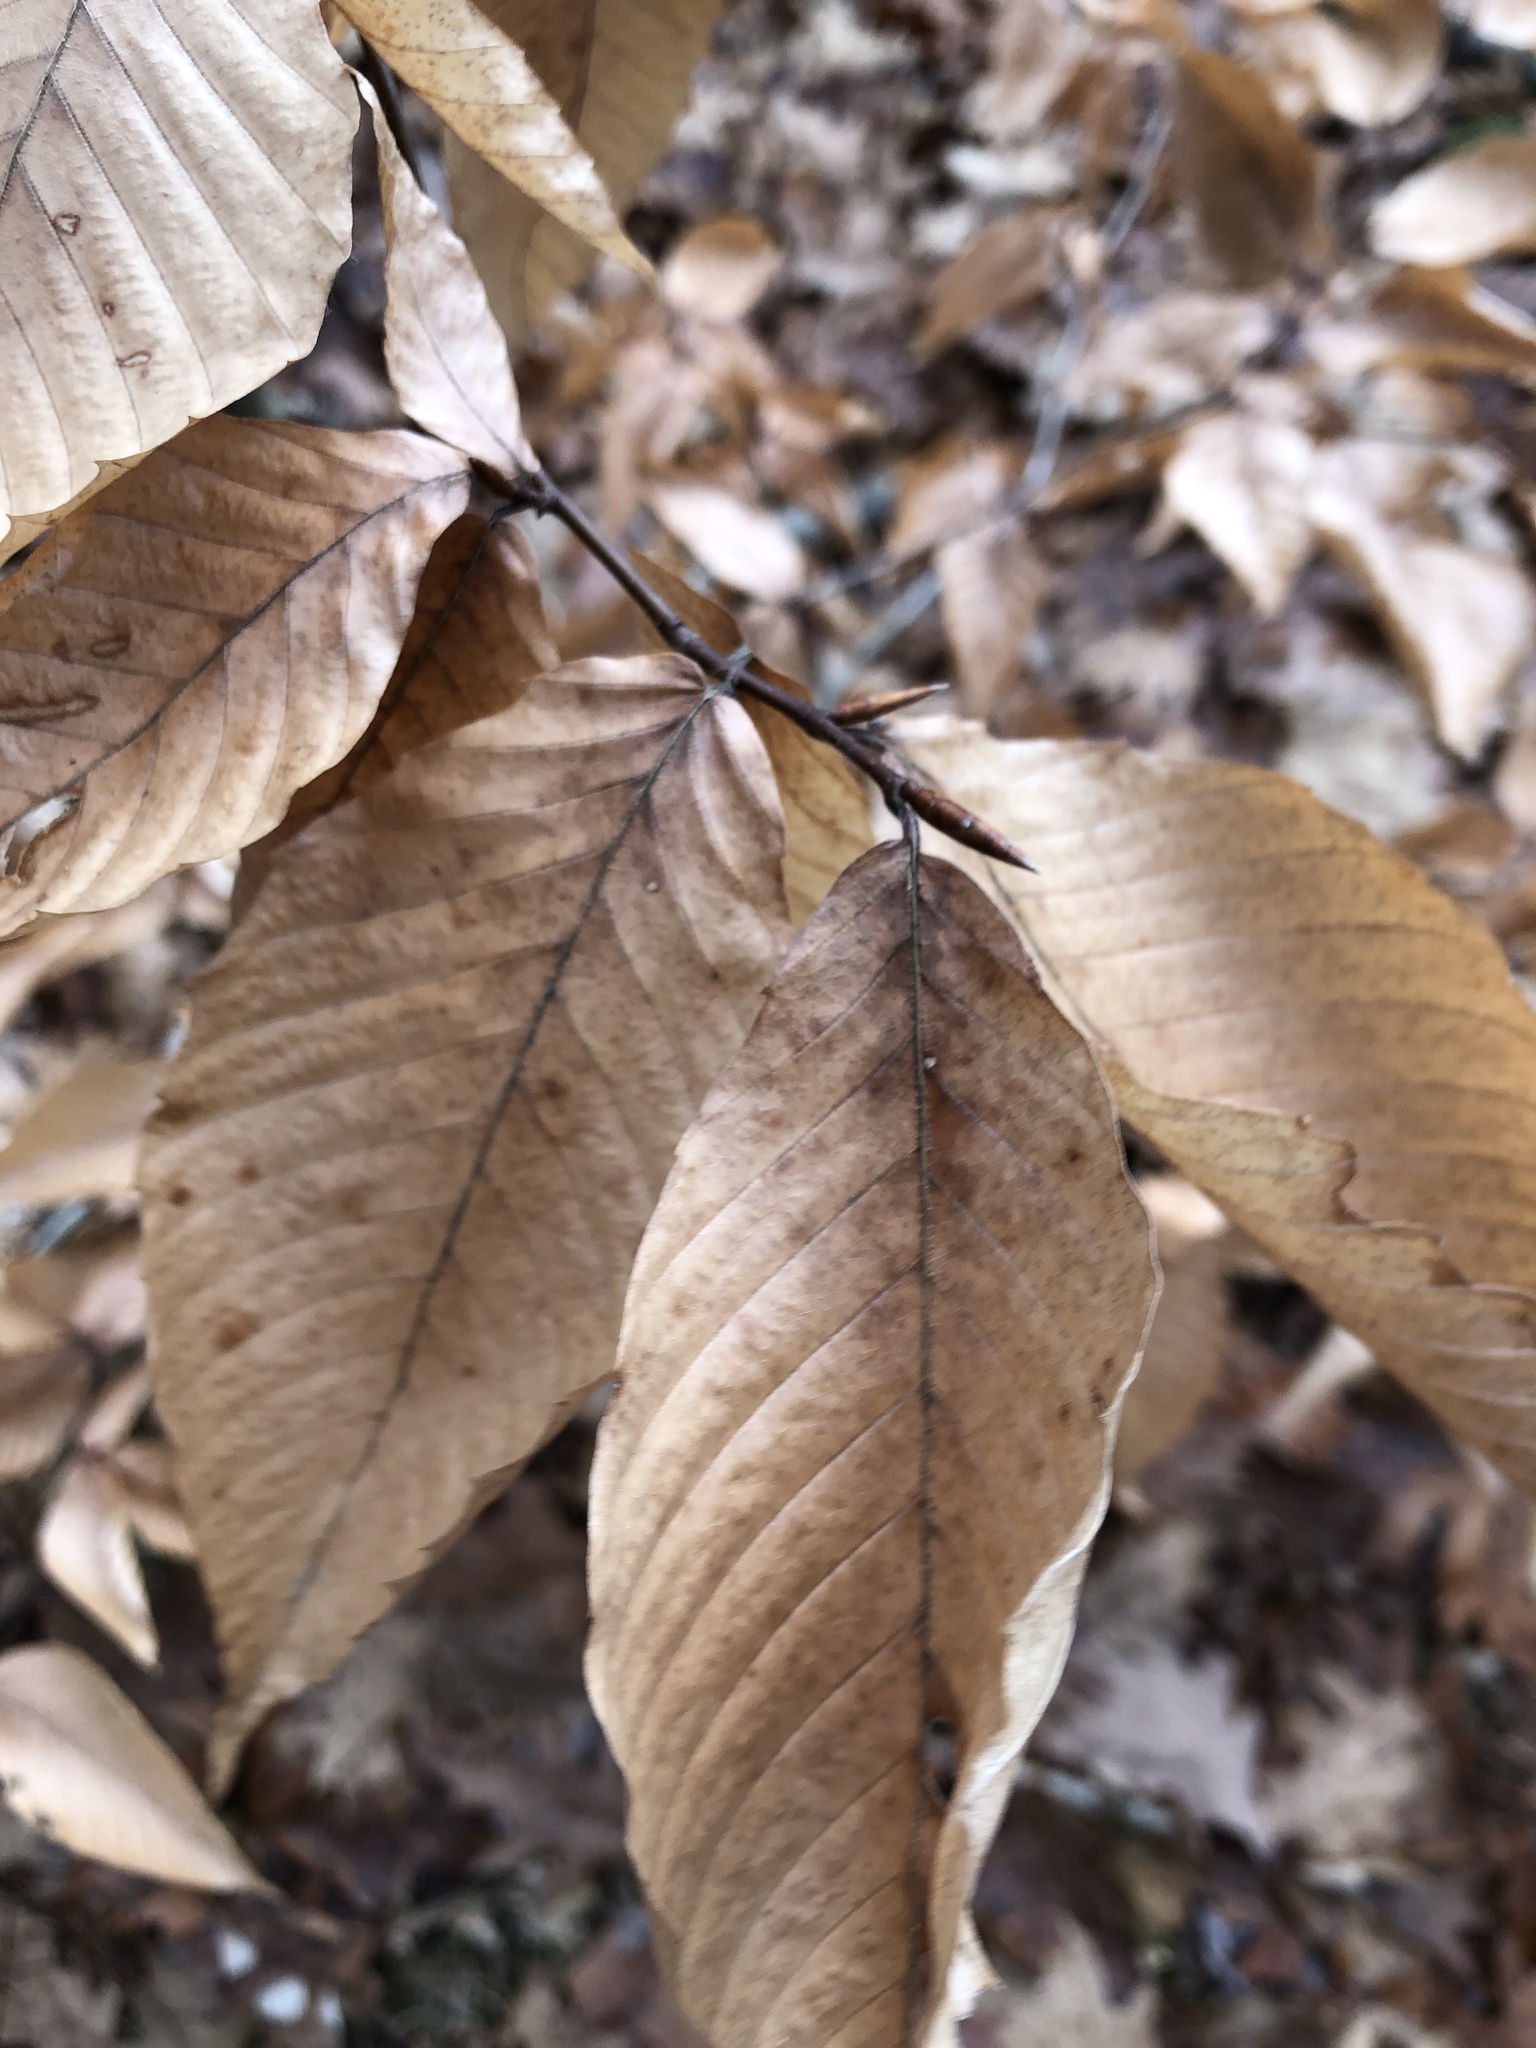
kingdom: Plantae
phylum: Tracheophyta
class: Magnoliopsida
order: Fagales
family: Fagaceae
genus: Fagus
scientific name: Fagus grandifolia
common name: American beech
